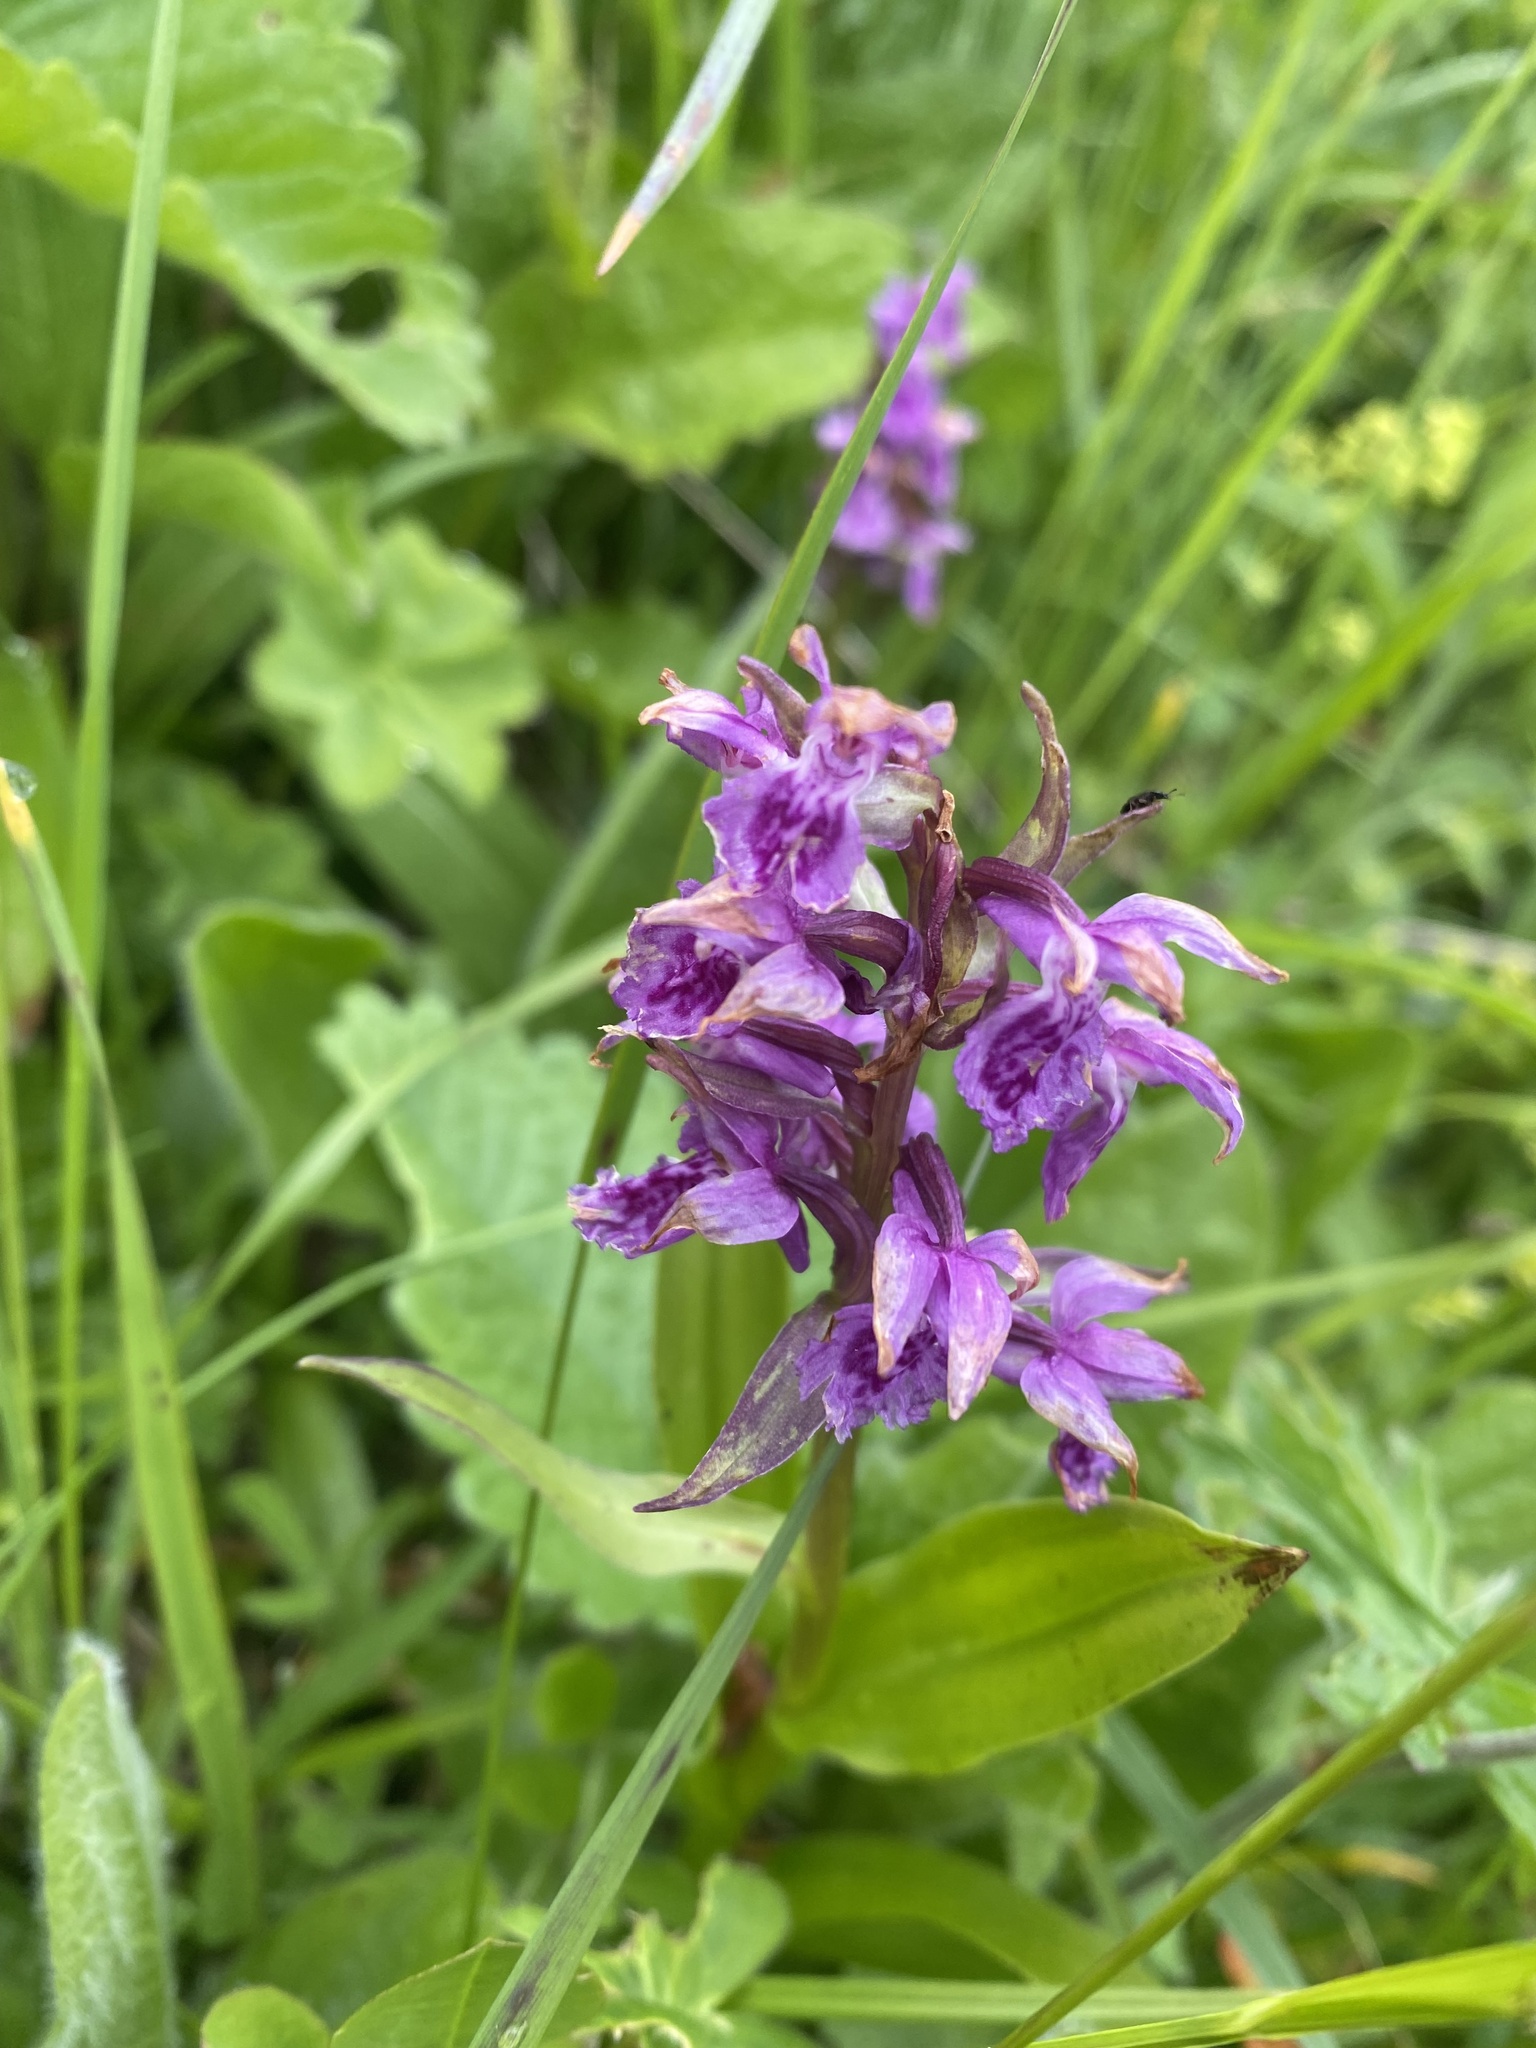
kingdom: Plantae
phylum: Tracheophyta
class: Liliopsida
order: Asparagales
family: Orchidaceae
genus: Dactylorhiza
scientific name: Dactylorhiza euxina
